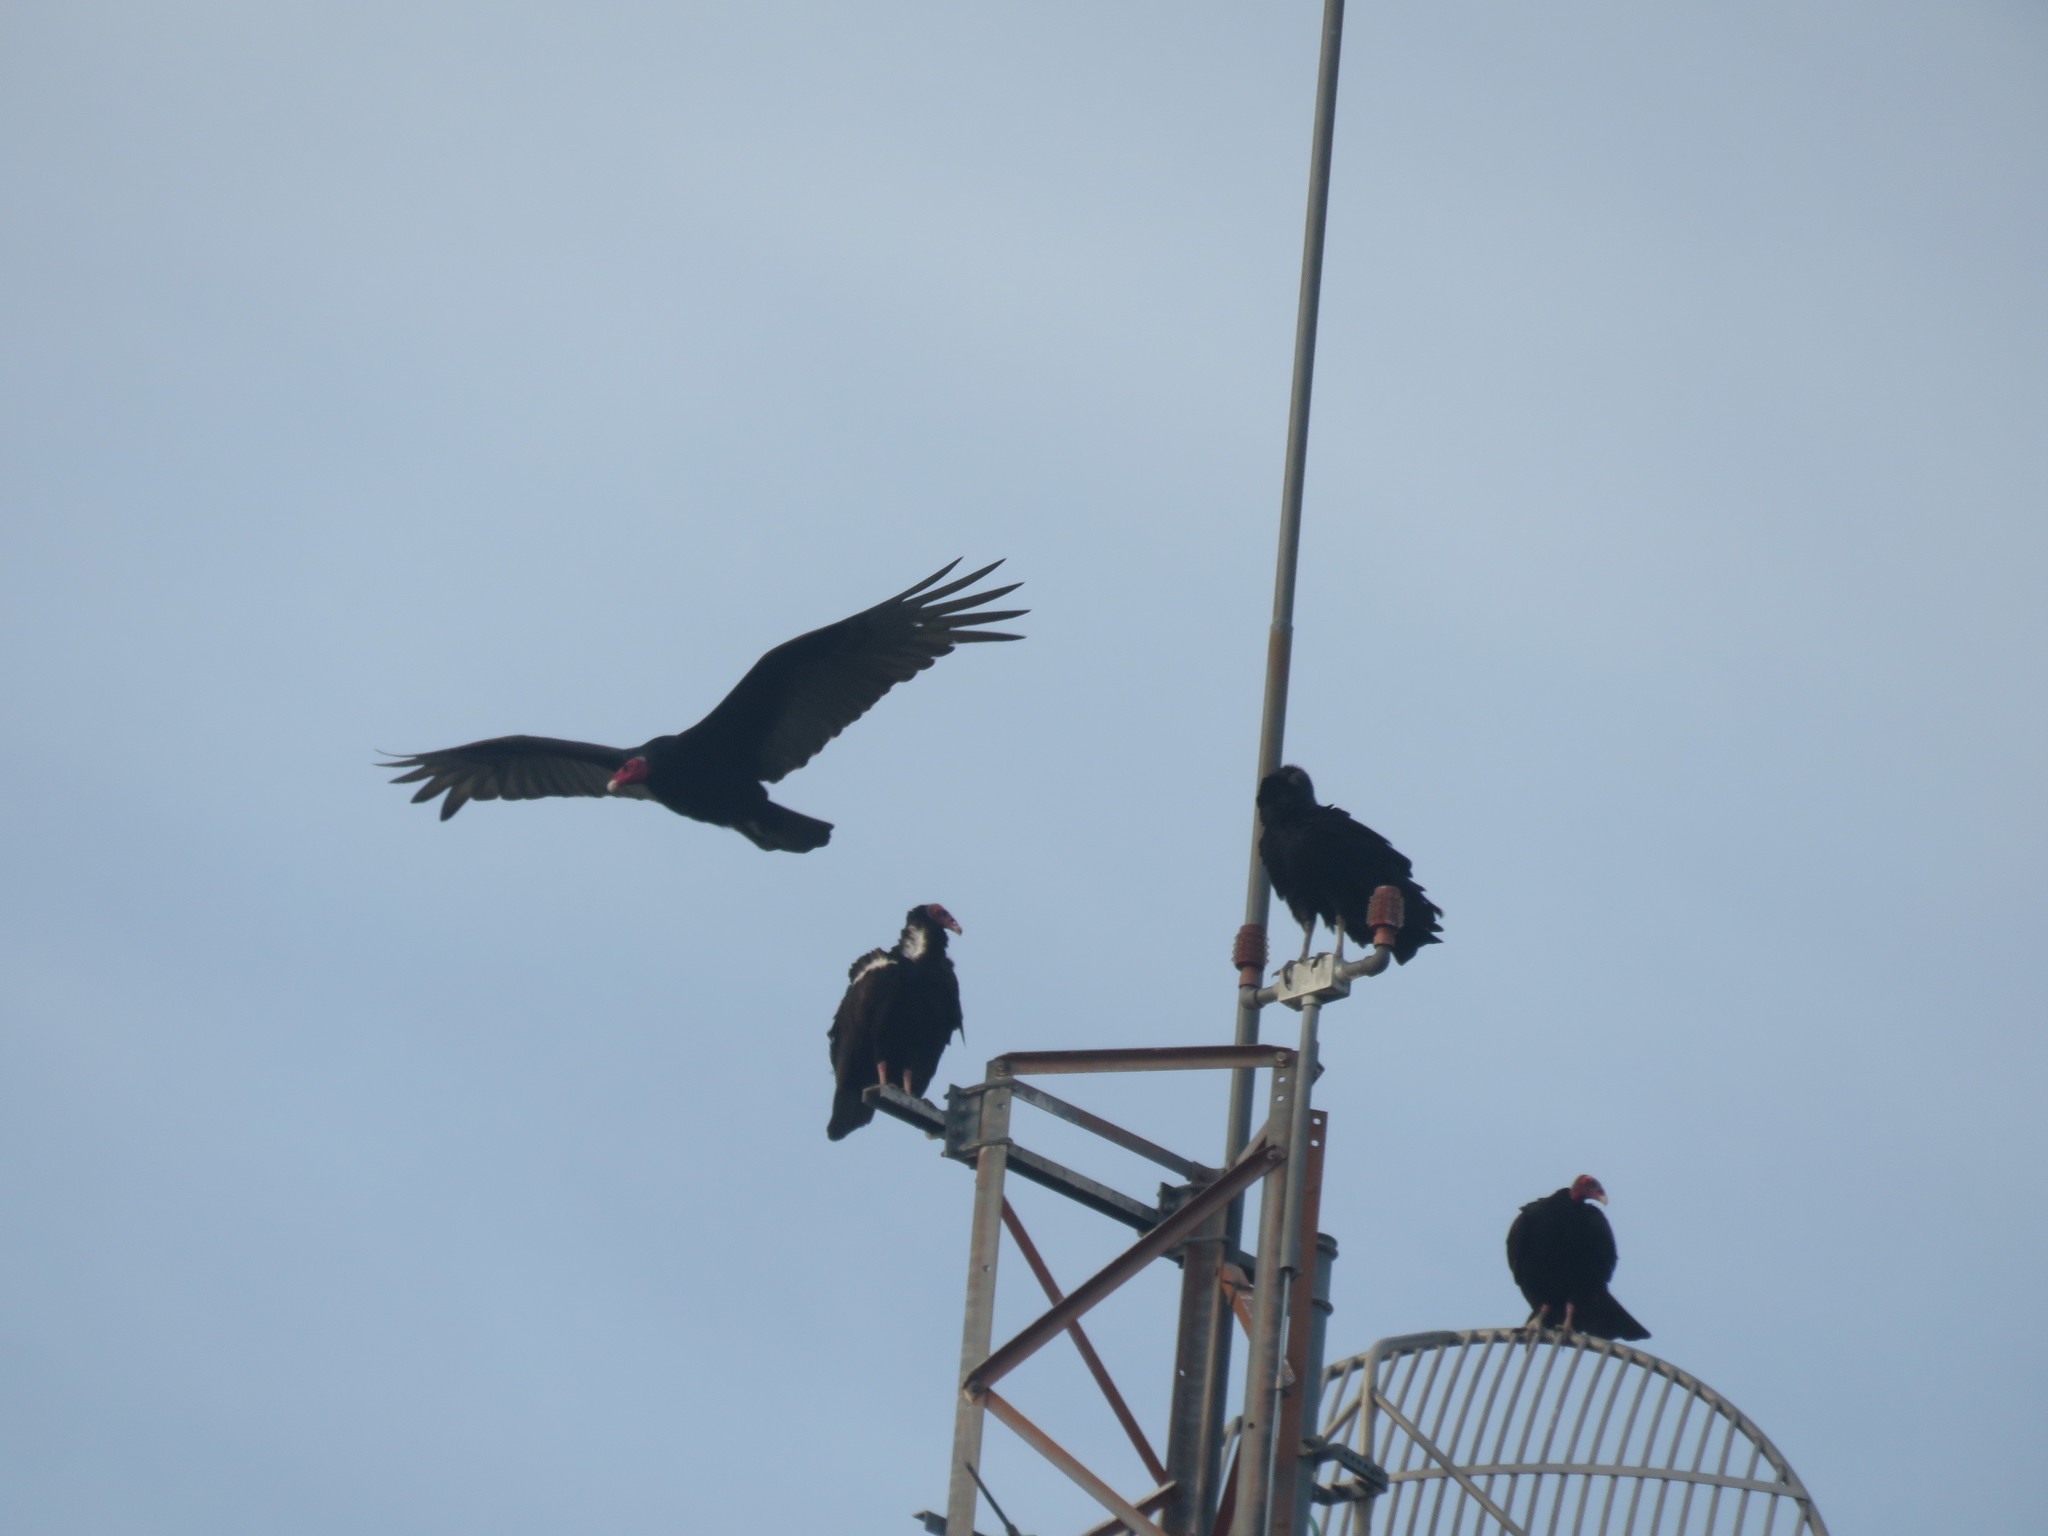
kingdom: Animalia
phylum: Chordata
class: Aves
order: Accipitriformes
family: Cathartidae
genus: Cathartes
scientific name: Cathartes aura
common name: Turkey vulture
